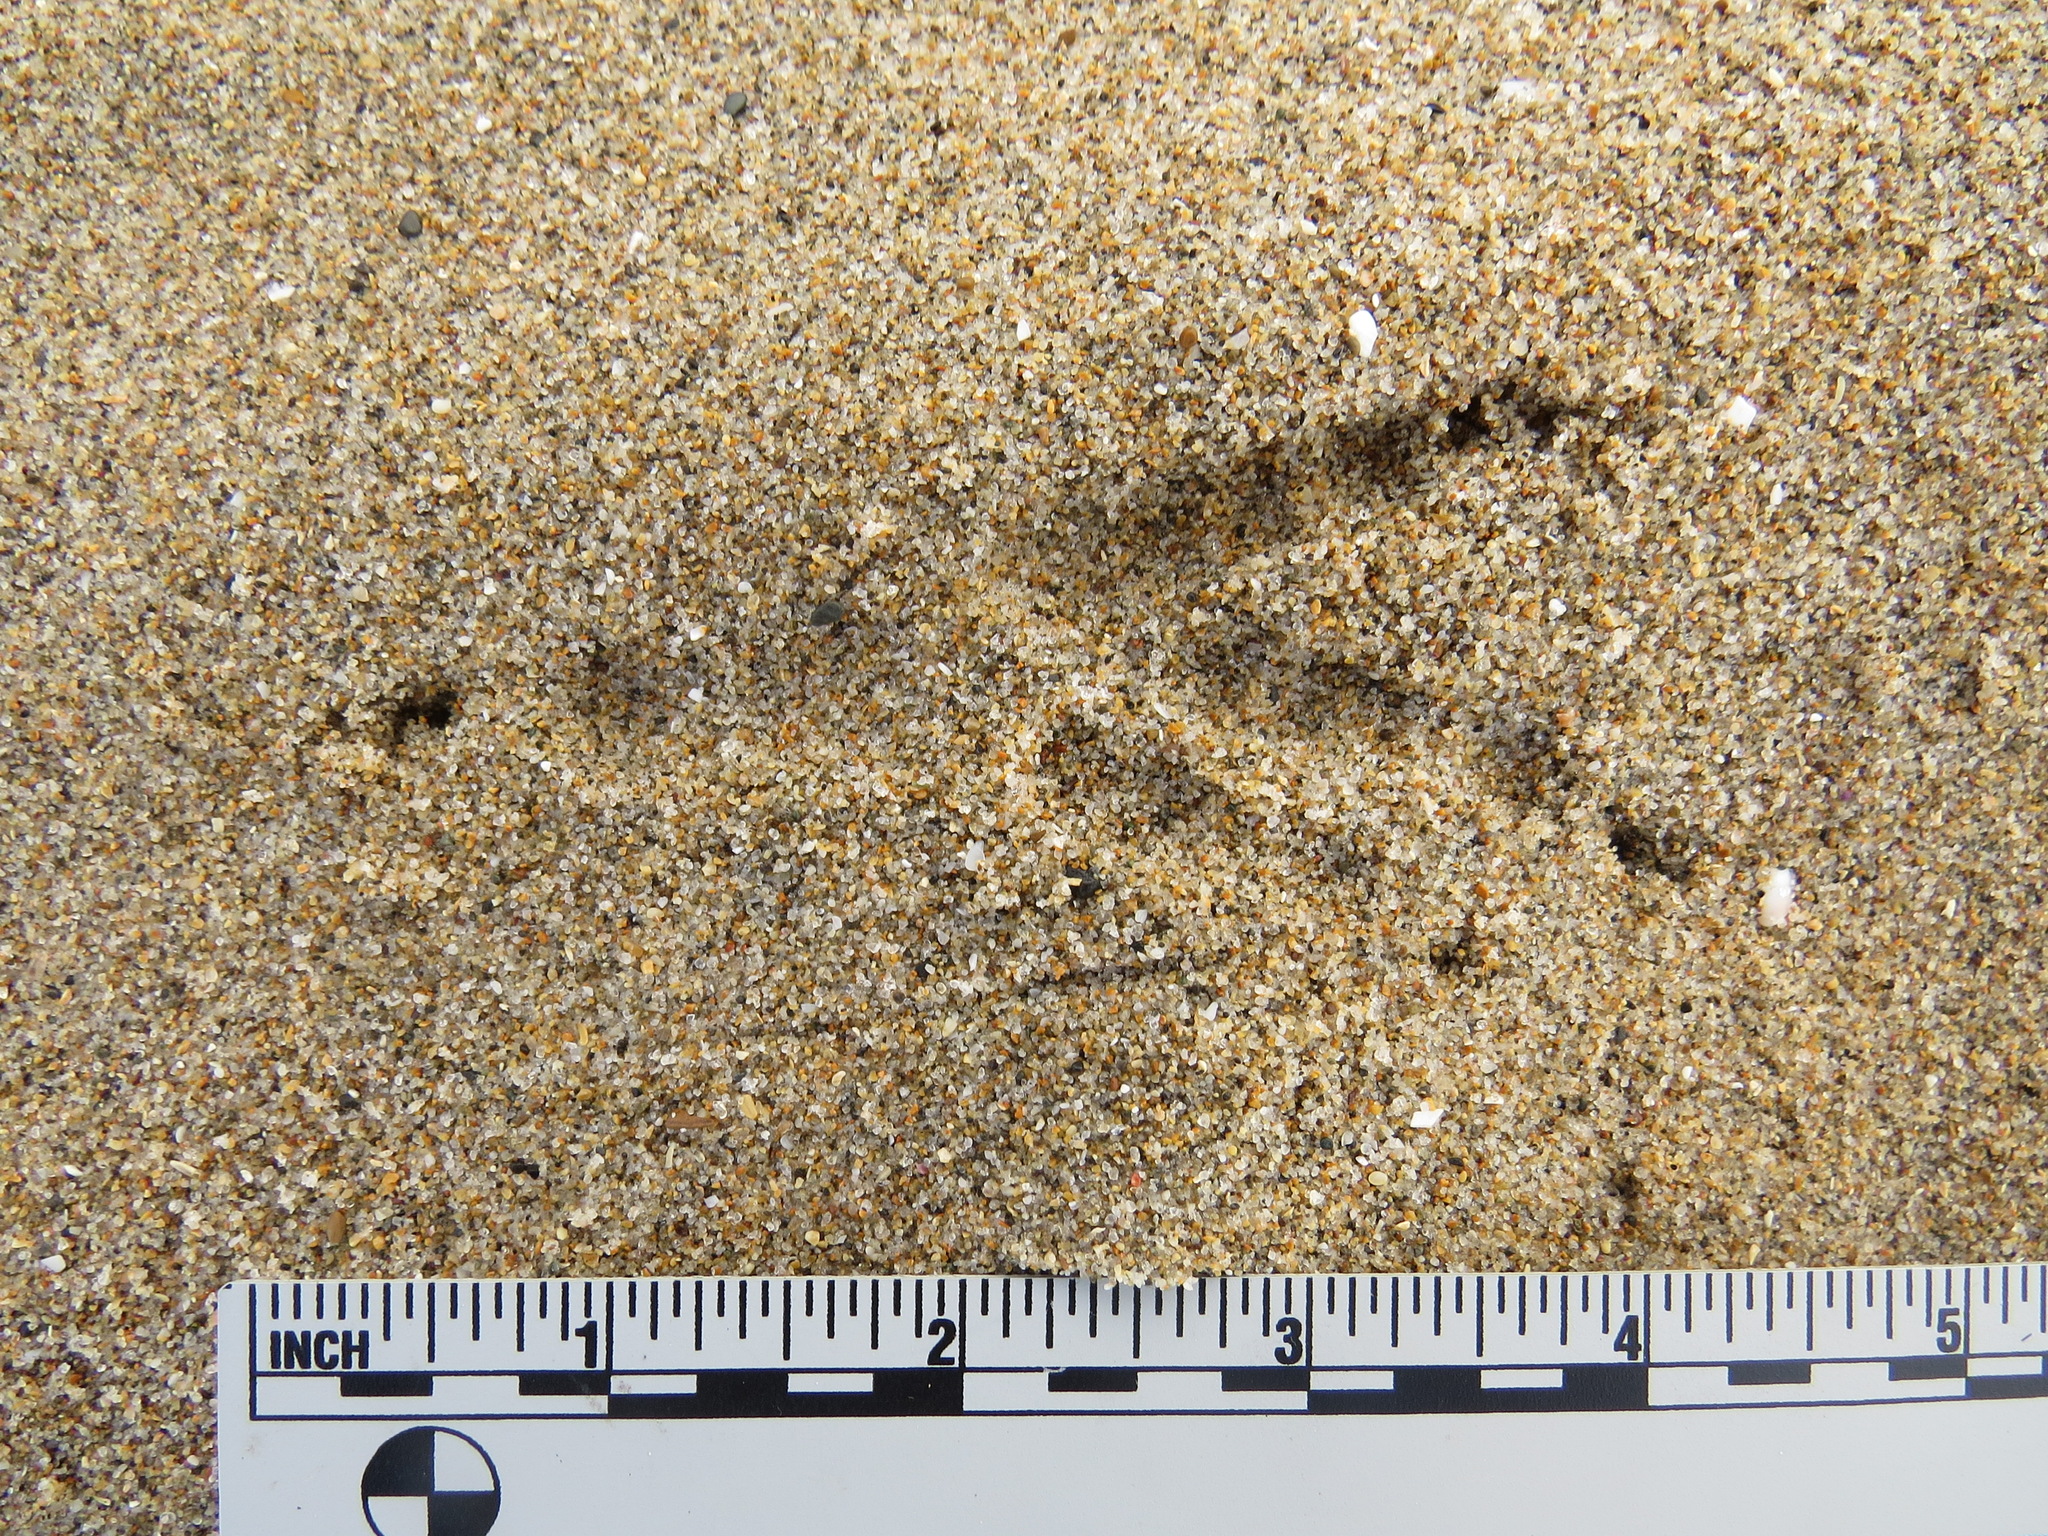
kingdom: Animalia
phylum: Chordata
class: Aves
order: Passeriformes
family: Corvidae
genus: Corvus
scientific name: Corvus corax
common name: Common raven
